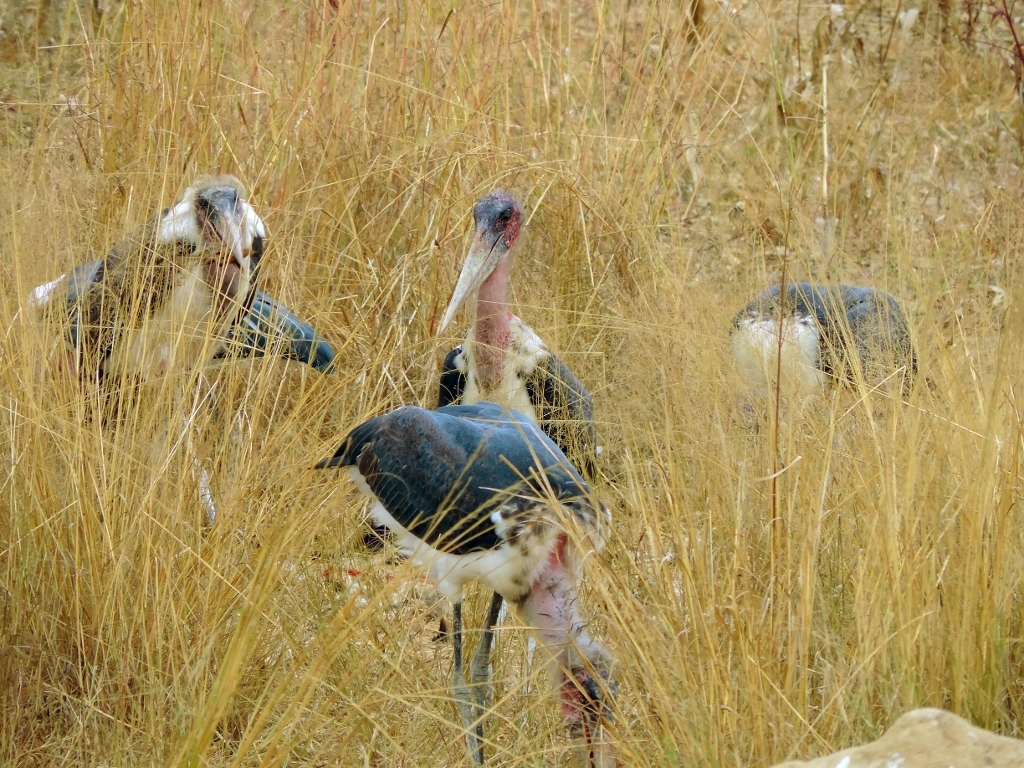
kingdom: Animalia
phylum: Chordata
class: Aves
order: Ciconiiformes
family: Ciconiidae
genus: Leptoptilos
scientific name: Leptoptilos crumenifer
